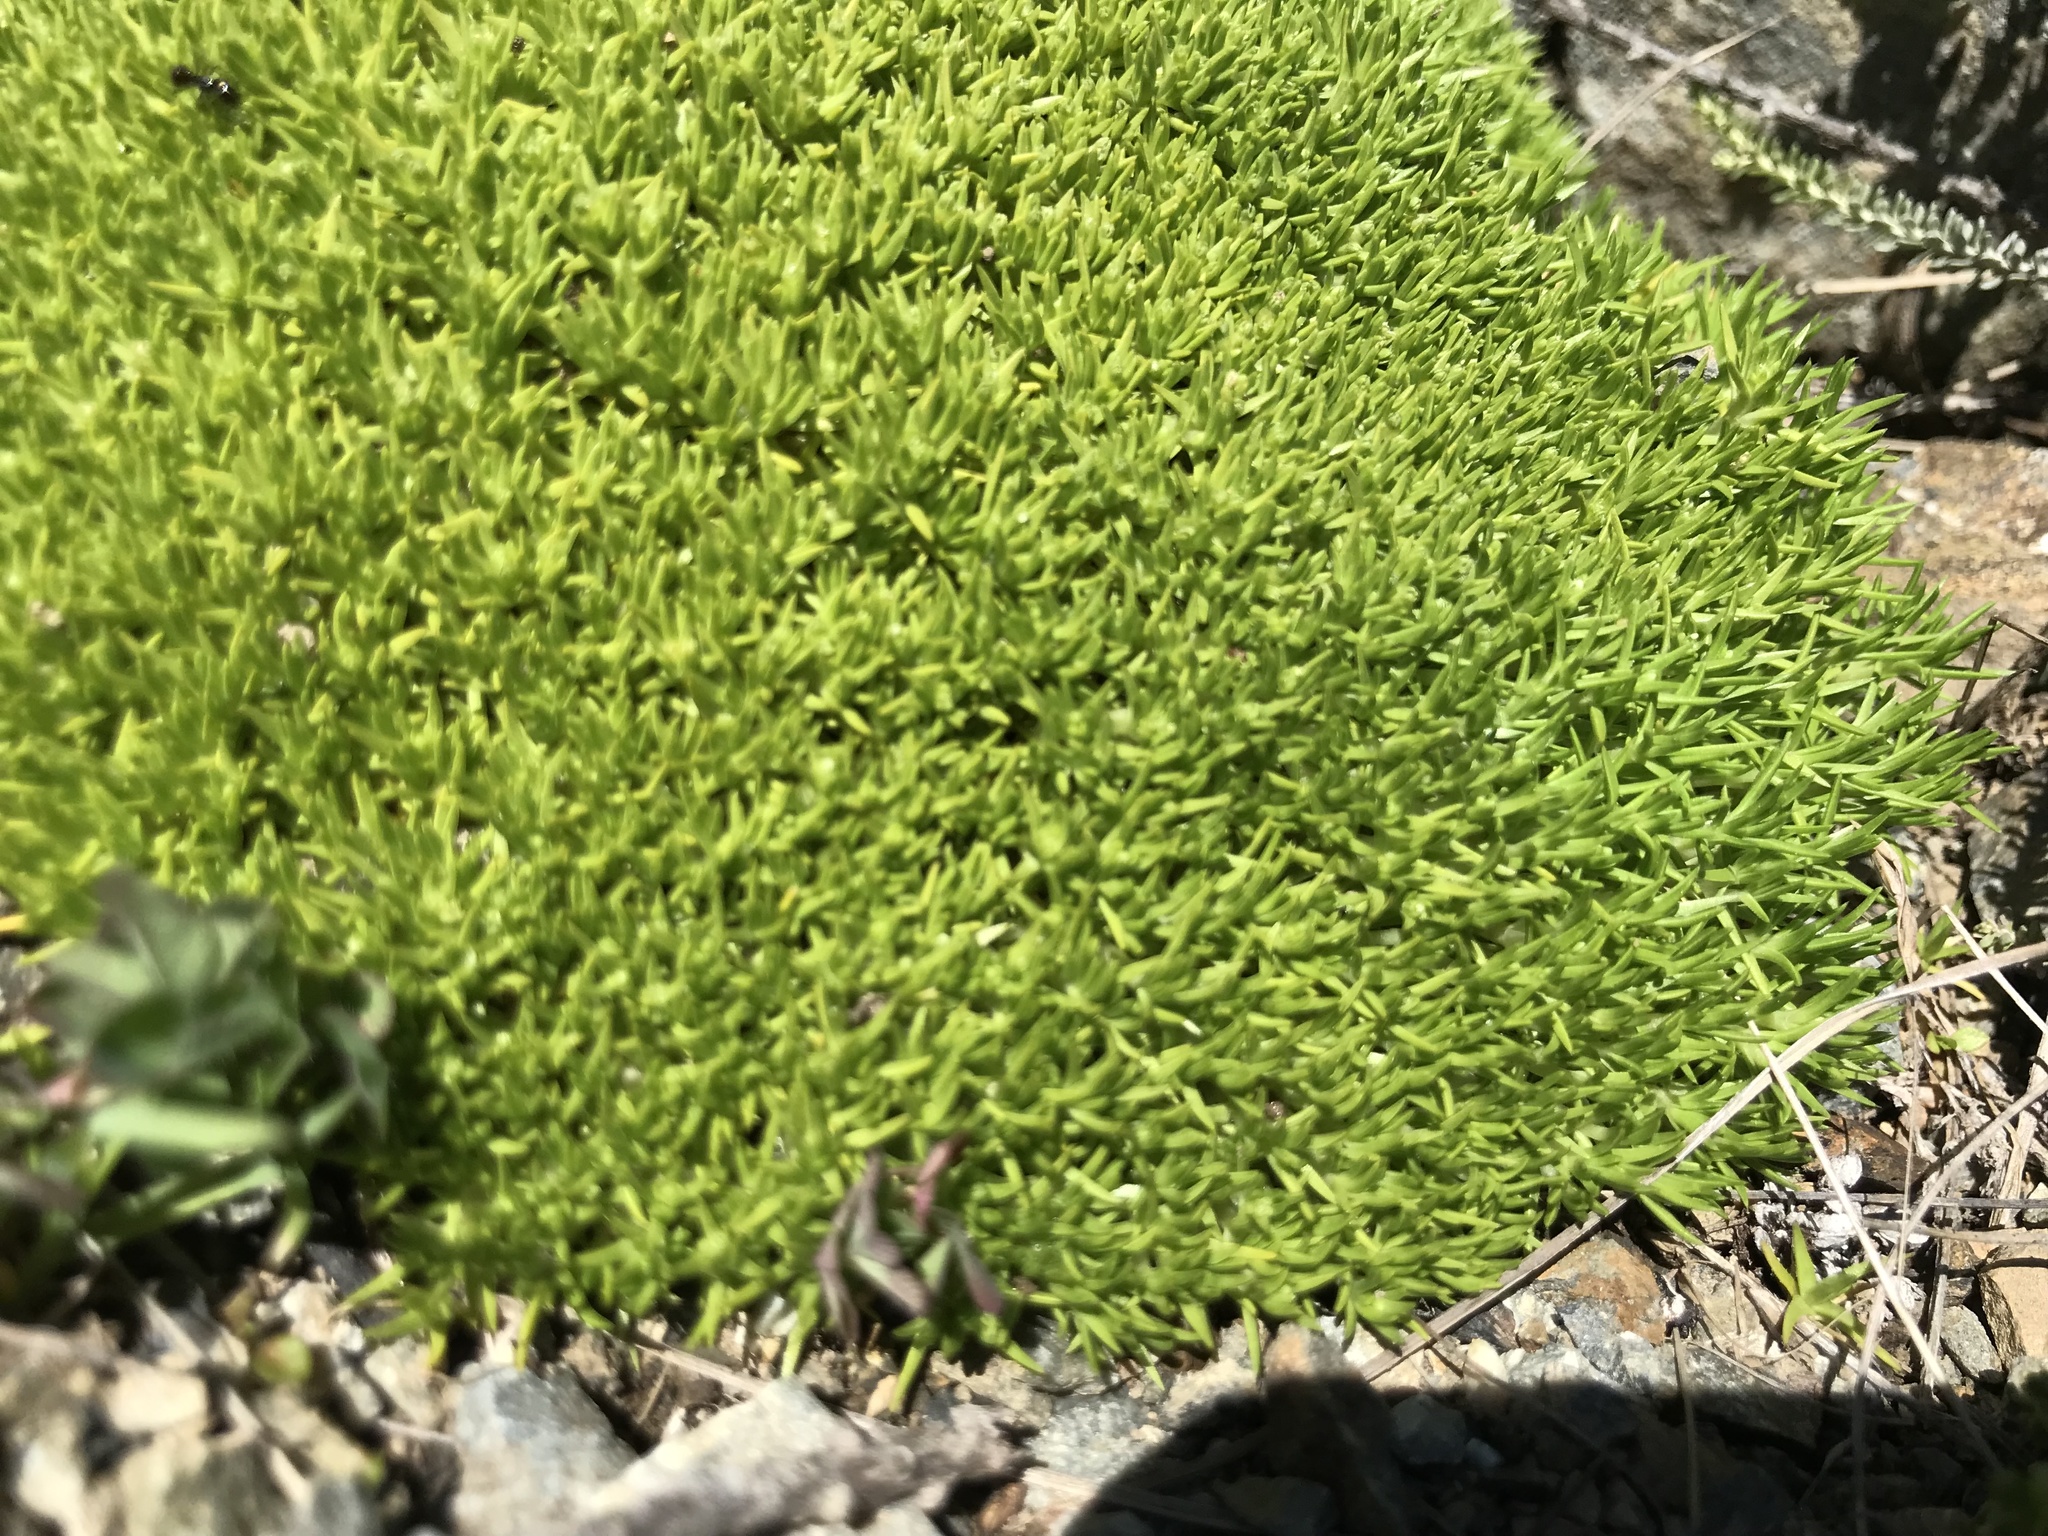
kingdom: Plantae
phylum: Tracheophyta
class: Magnoliopsida
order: Caryophyllales
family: Caryophyllaceae
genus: Scleranthus
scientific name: Scleranthus biflorus
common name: Two-flower knawel
